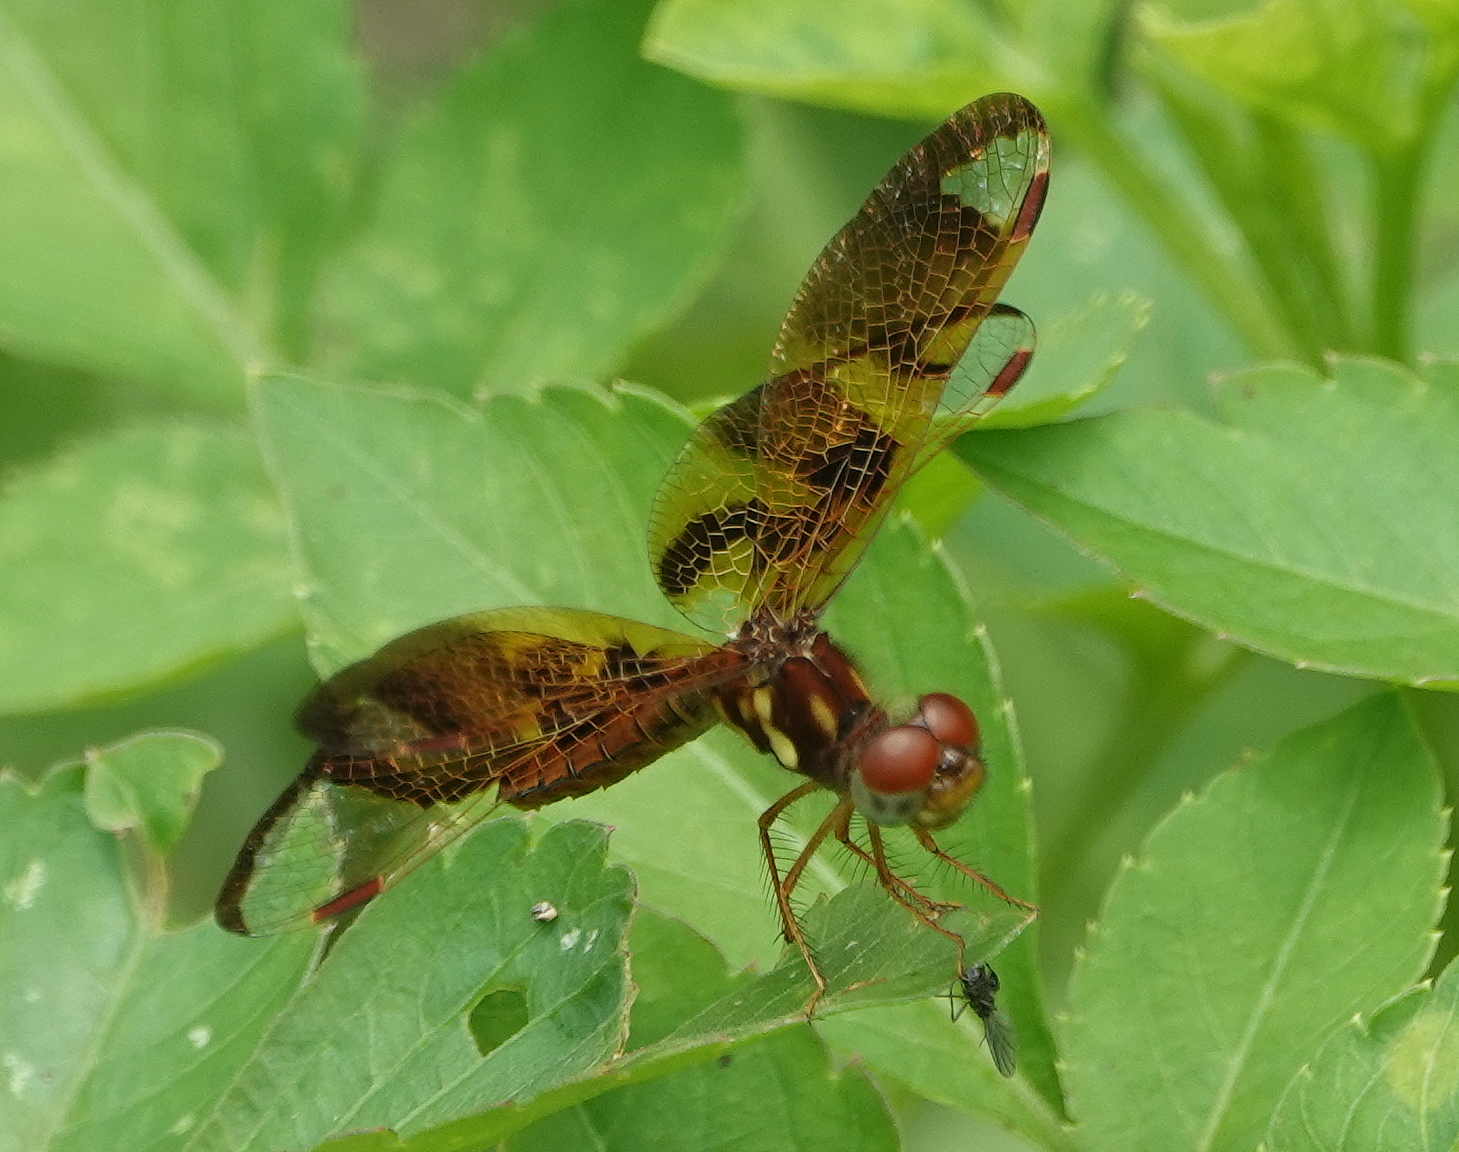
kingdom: Animalia
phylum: Arthropoda
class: Insecta
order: Odonata
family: Libellulidae
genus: Perithemis
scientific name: Perithemis tenera
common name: Eastern amberwing
